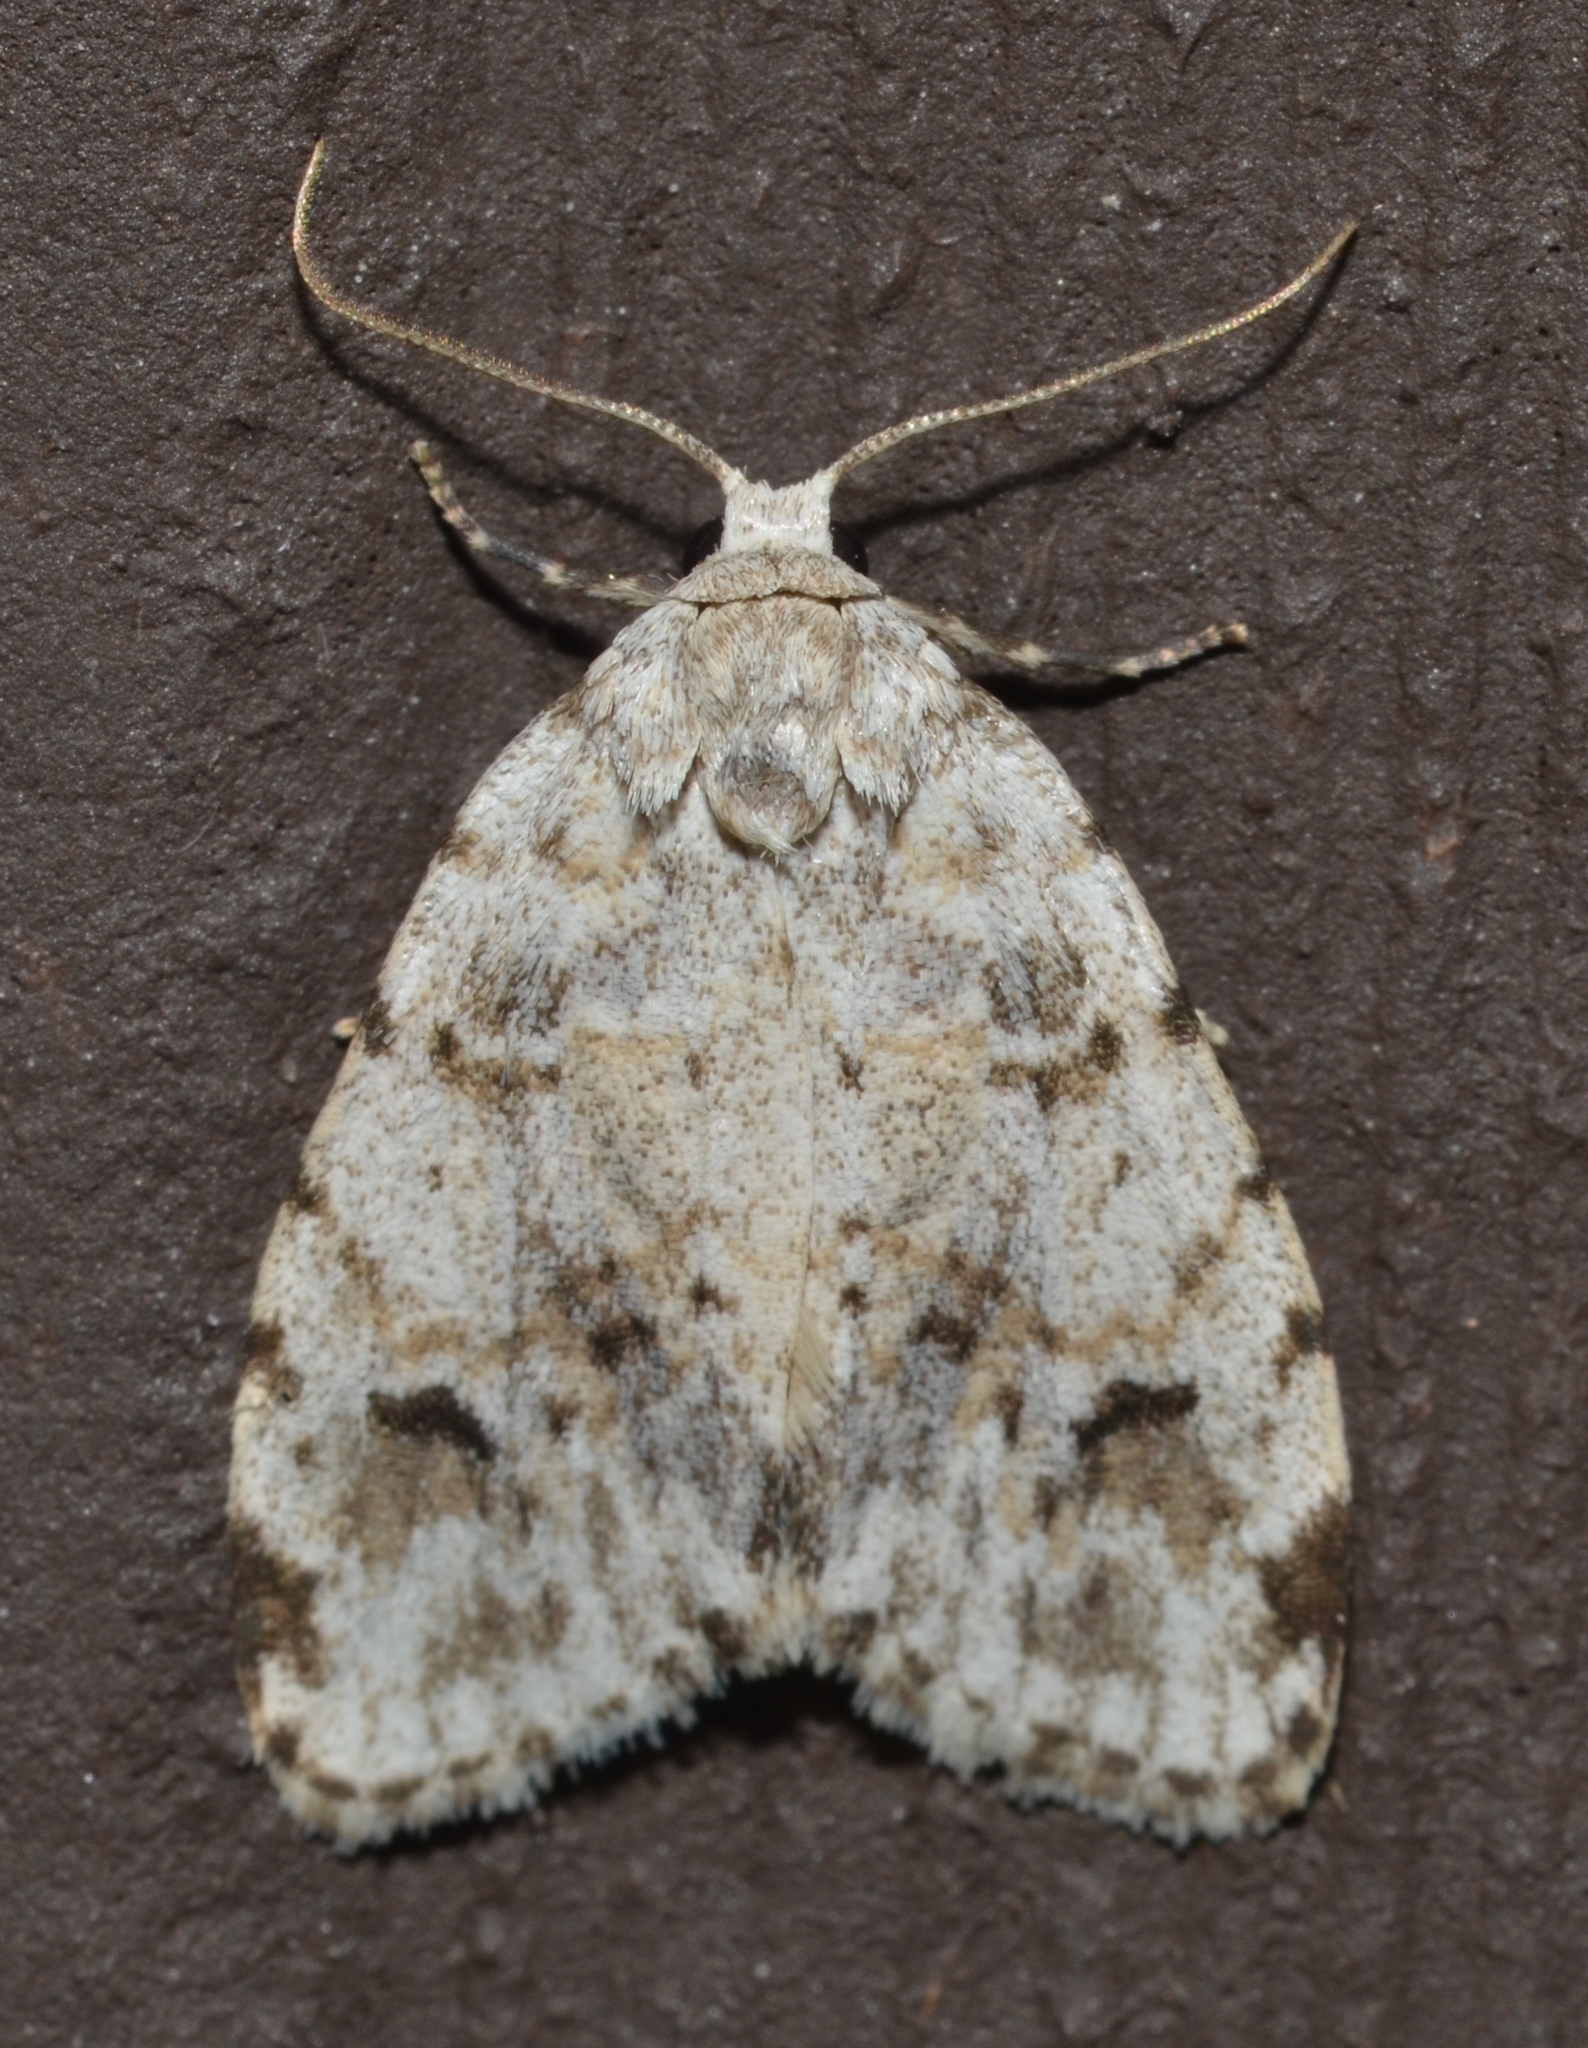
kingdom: Animalia
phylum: Arthropoda
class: Insecta
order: Lepidoptera
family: Erebidae
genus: Clemensia
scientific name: Clemensia albata
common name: Little white lichen moth
